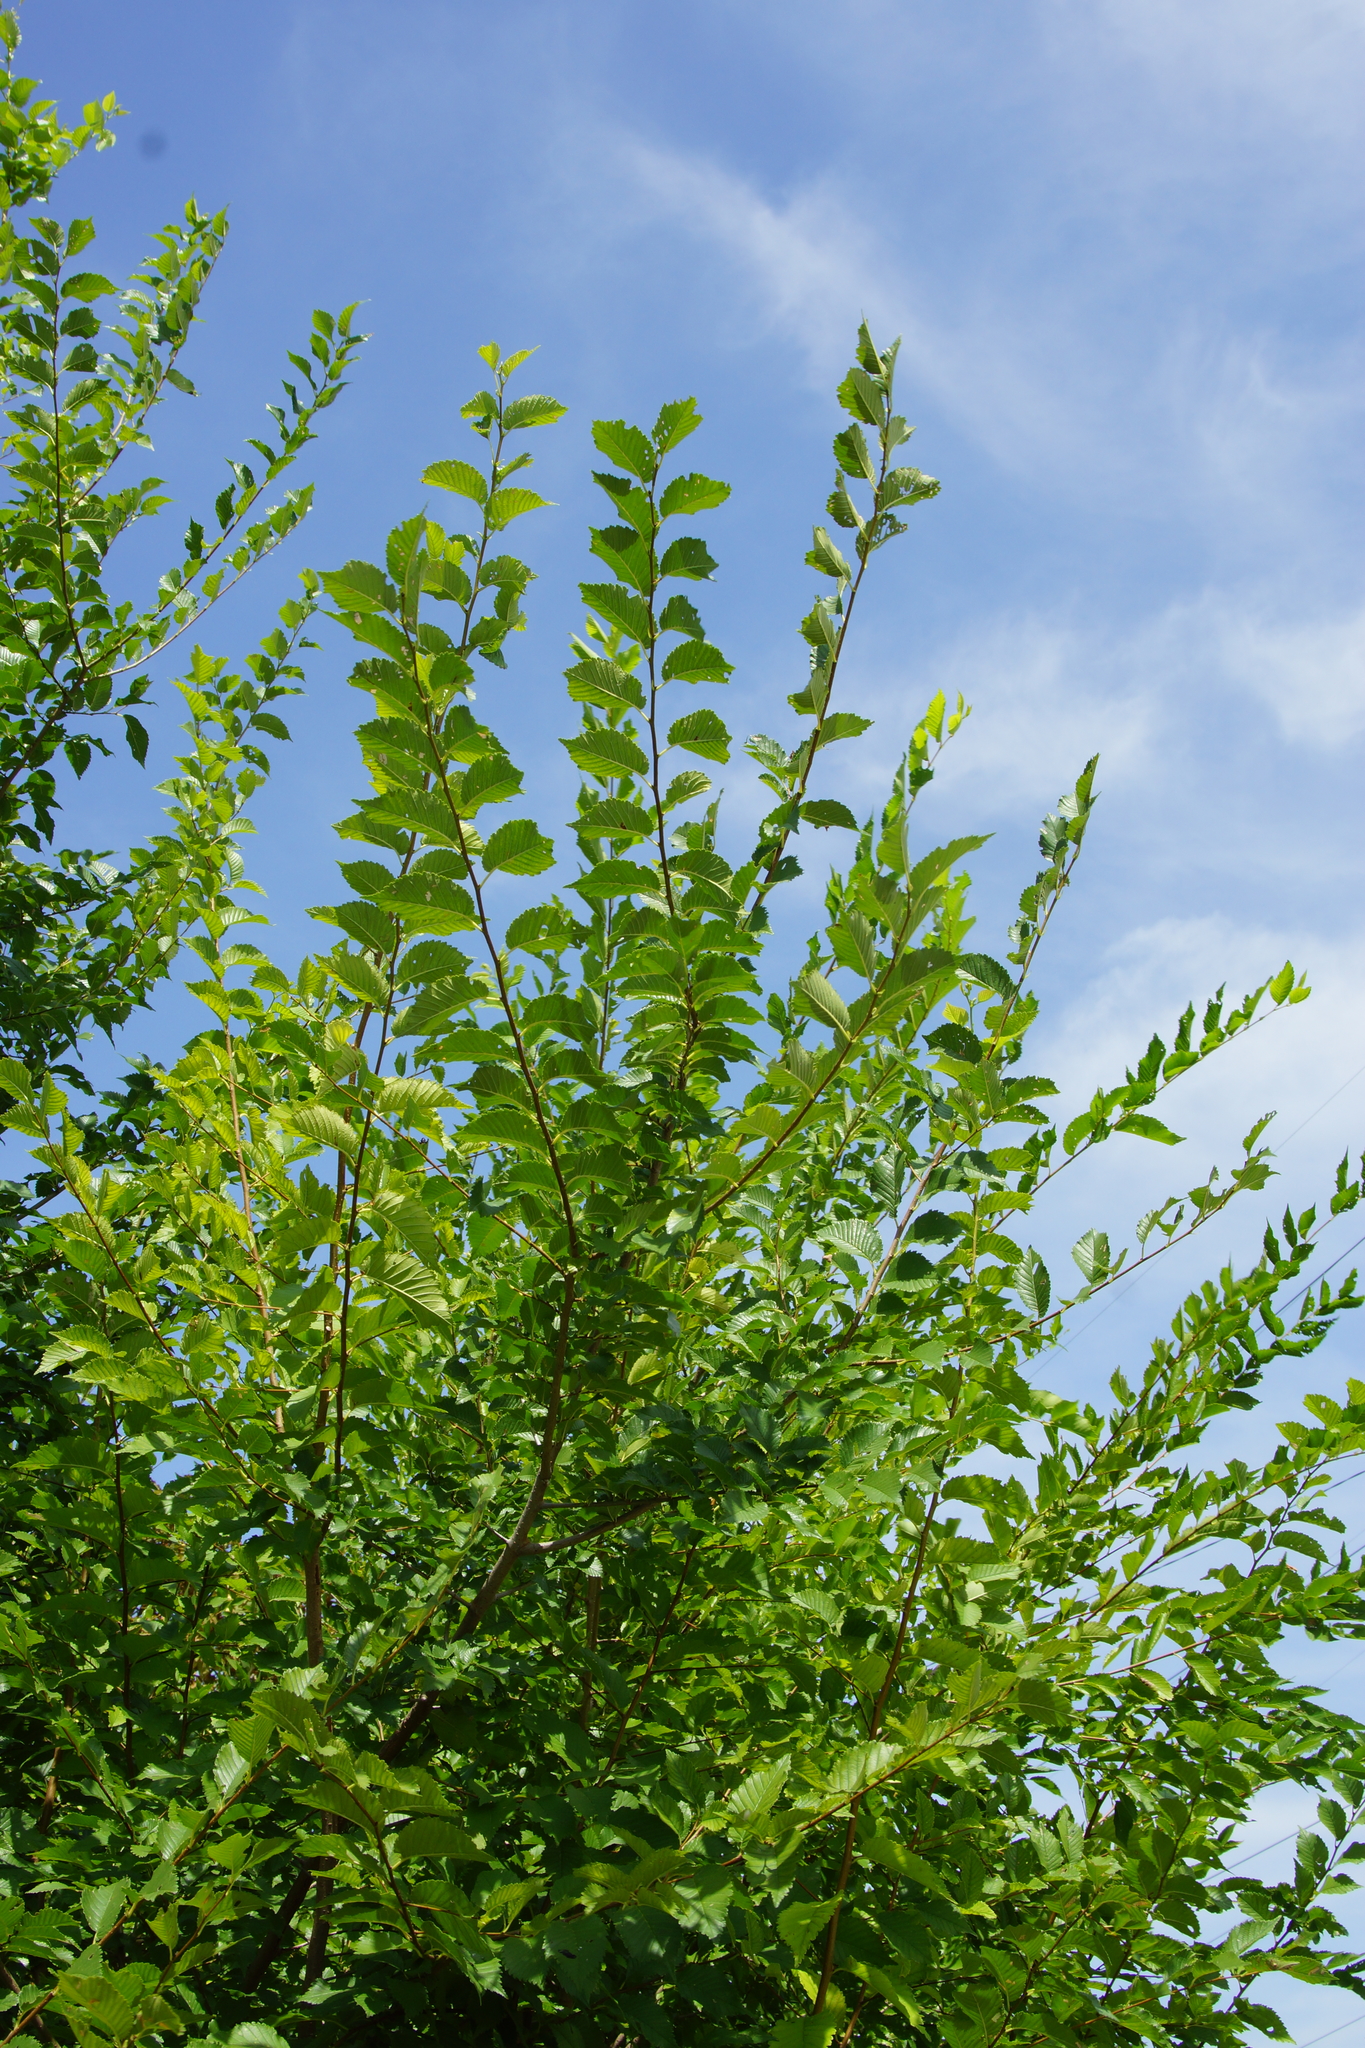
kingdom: Plantae
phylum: Tracheophyta
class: Magnoliopsida
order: Rosales
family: Ulmaceae
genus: Ulmus
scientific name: Ulmus pumila
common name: Siberian elm
